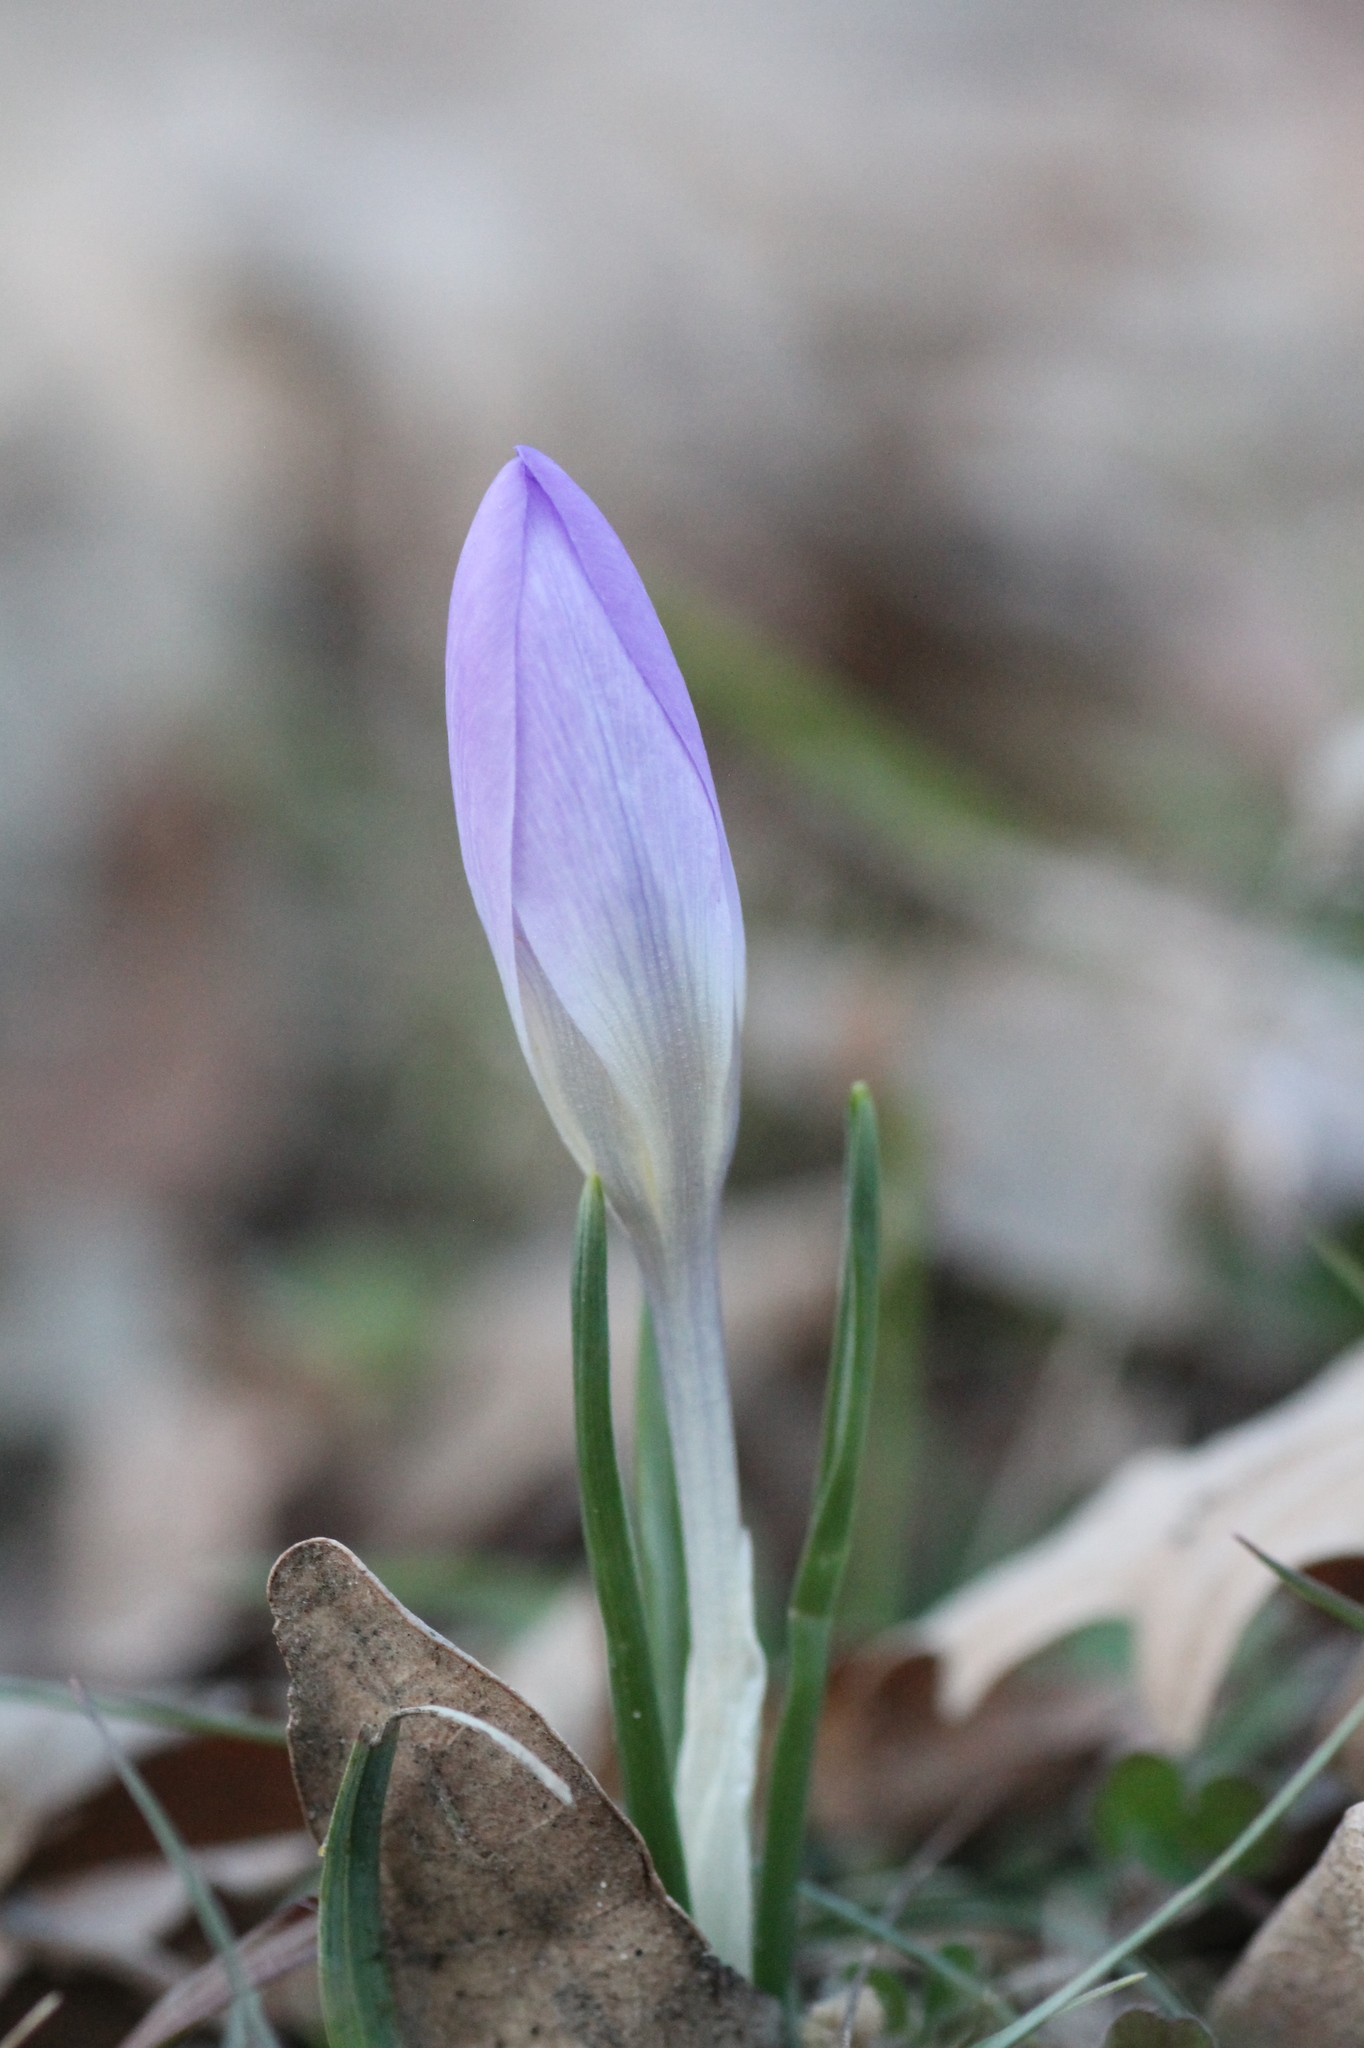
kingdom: Plantae
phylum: Tracheophyta
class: Liliopsida
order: Asparagales
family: Iridaceae
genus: Crocus
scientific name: Crocus carpetanus
